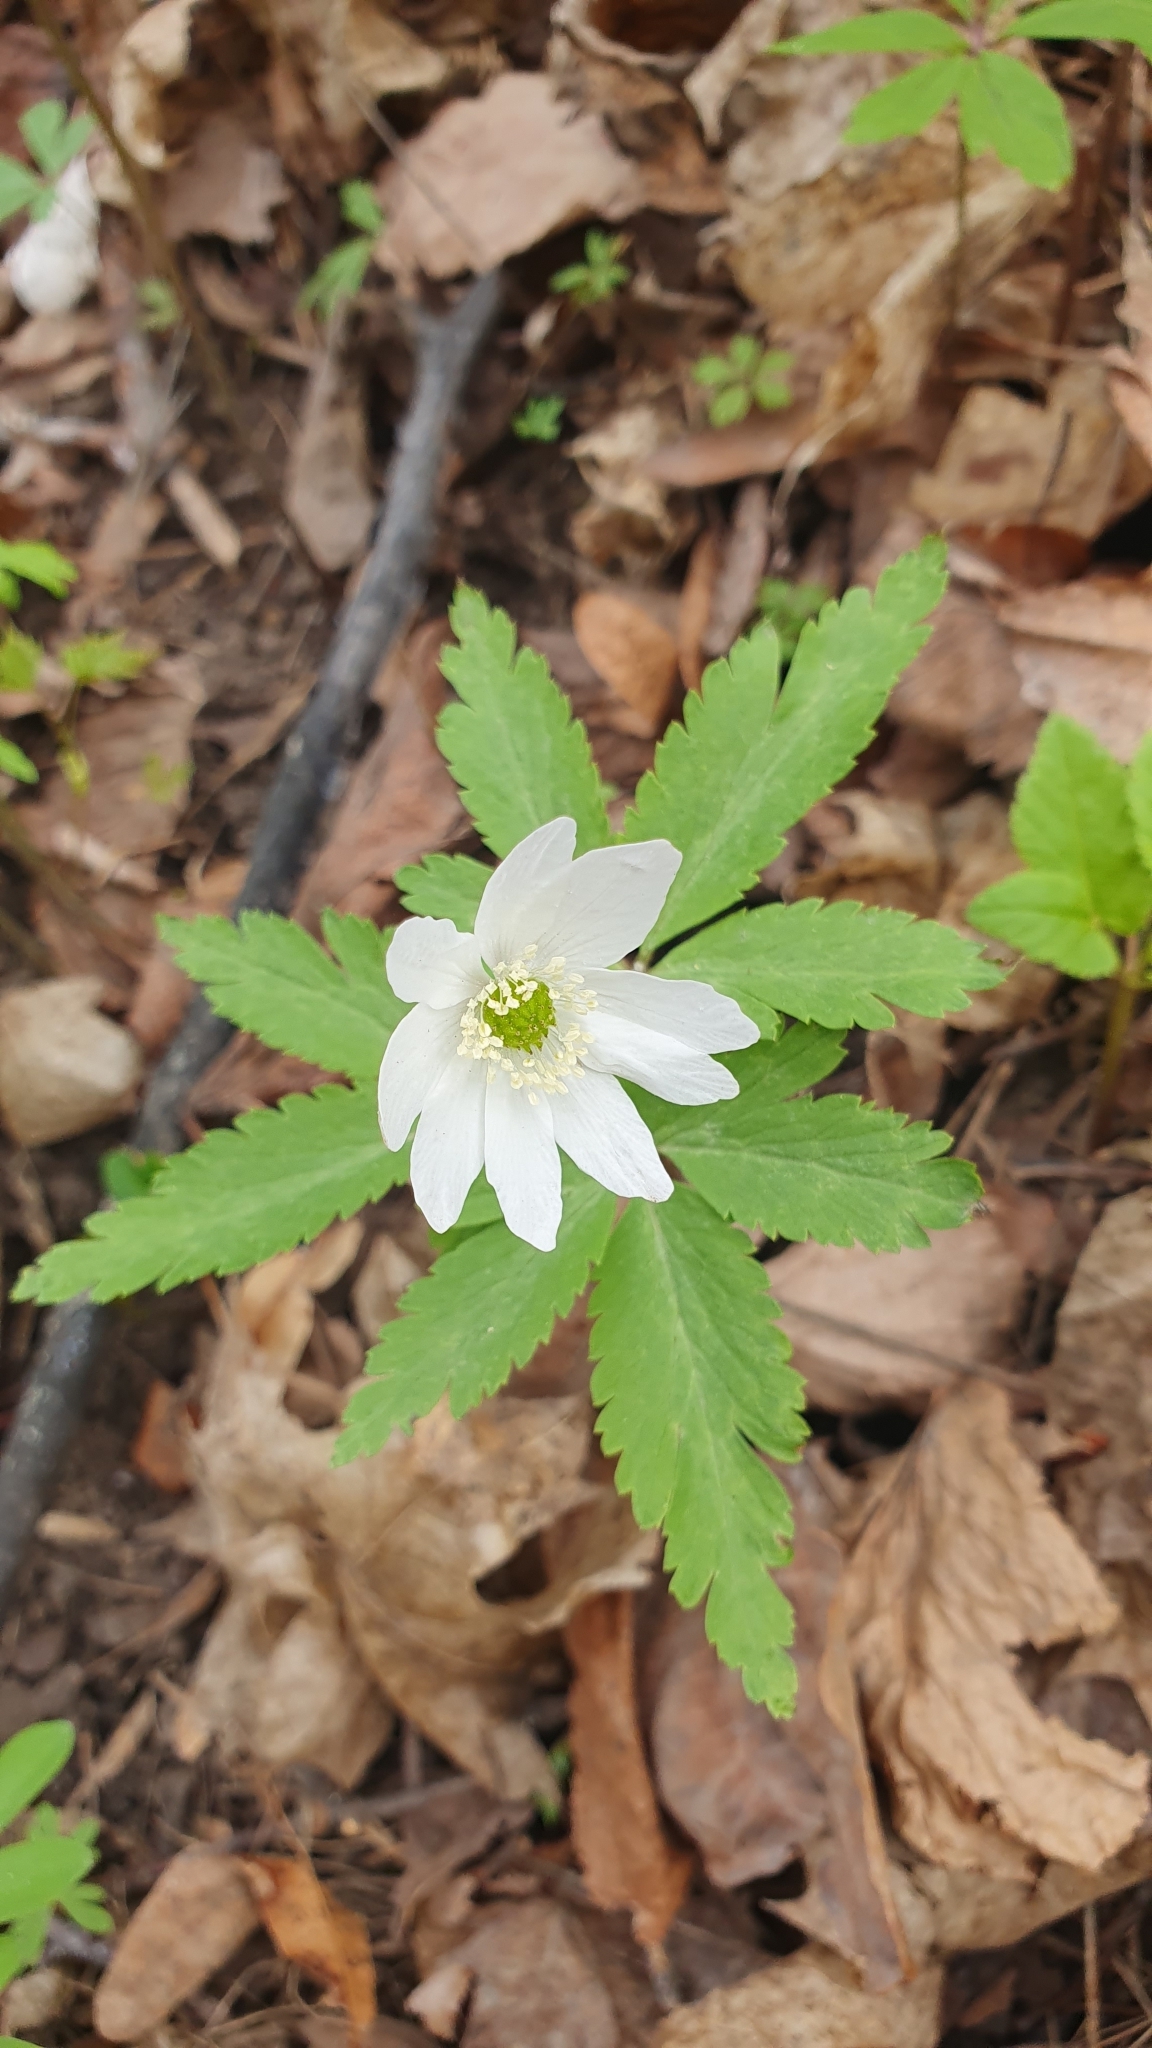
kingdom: Plantae
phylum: Tracheophyta
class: Magnoliopsida
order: Ranunculales
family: Ranunculaceae
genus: Anemone
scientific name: Anemone altaica
